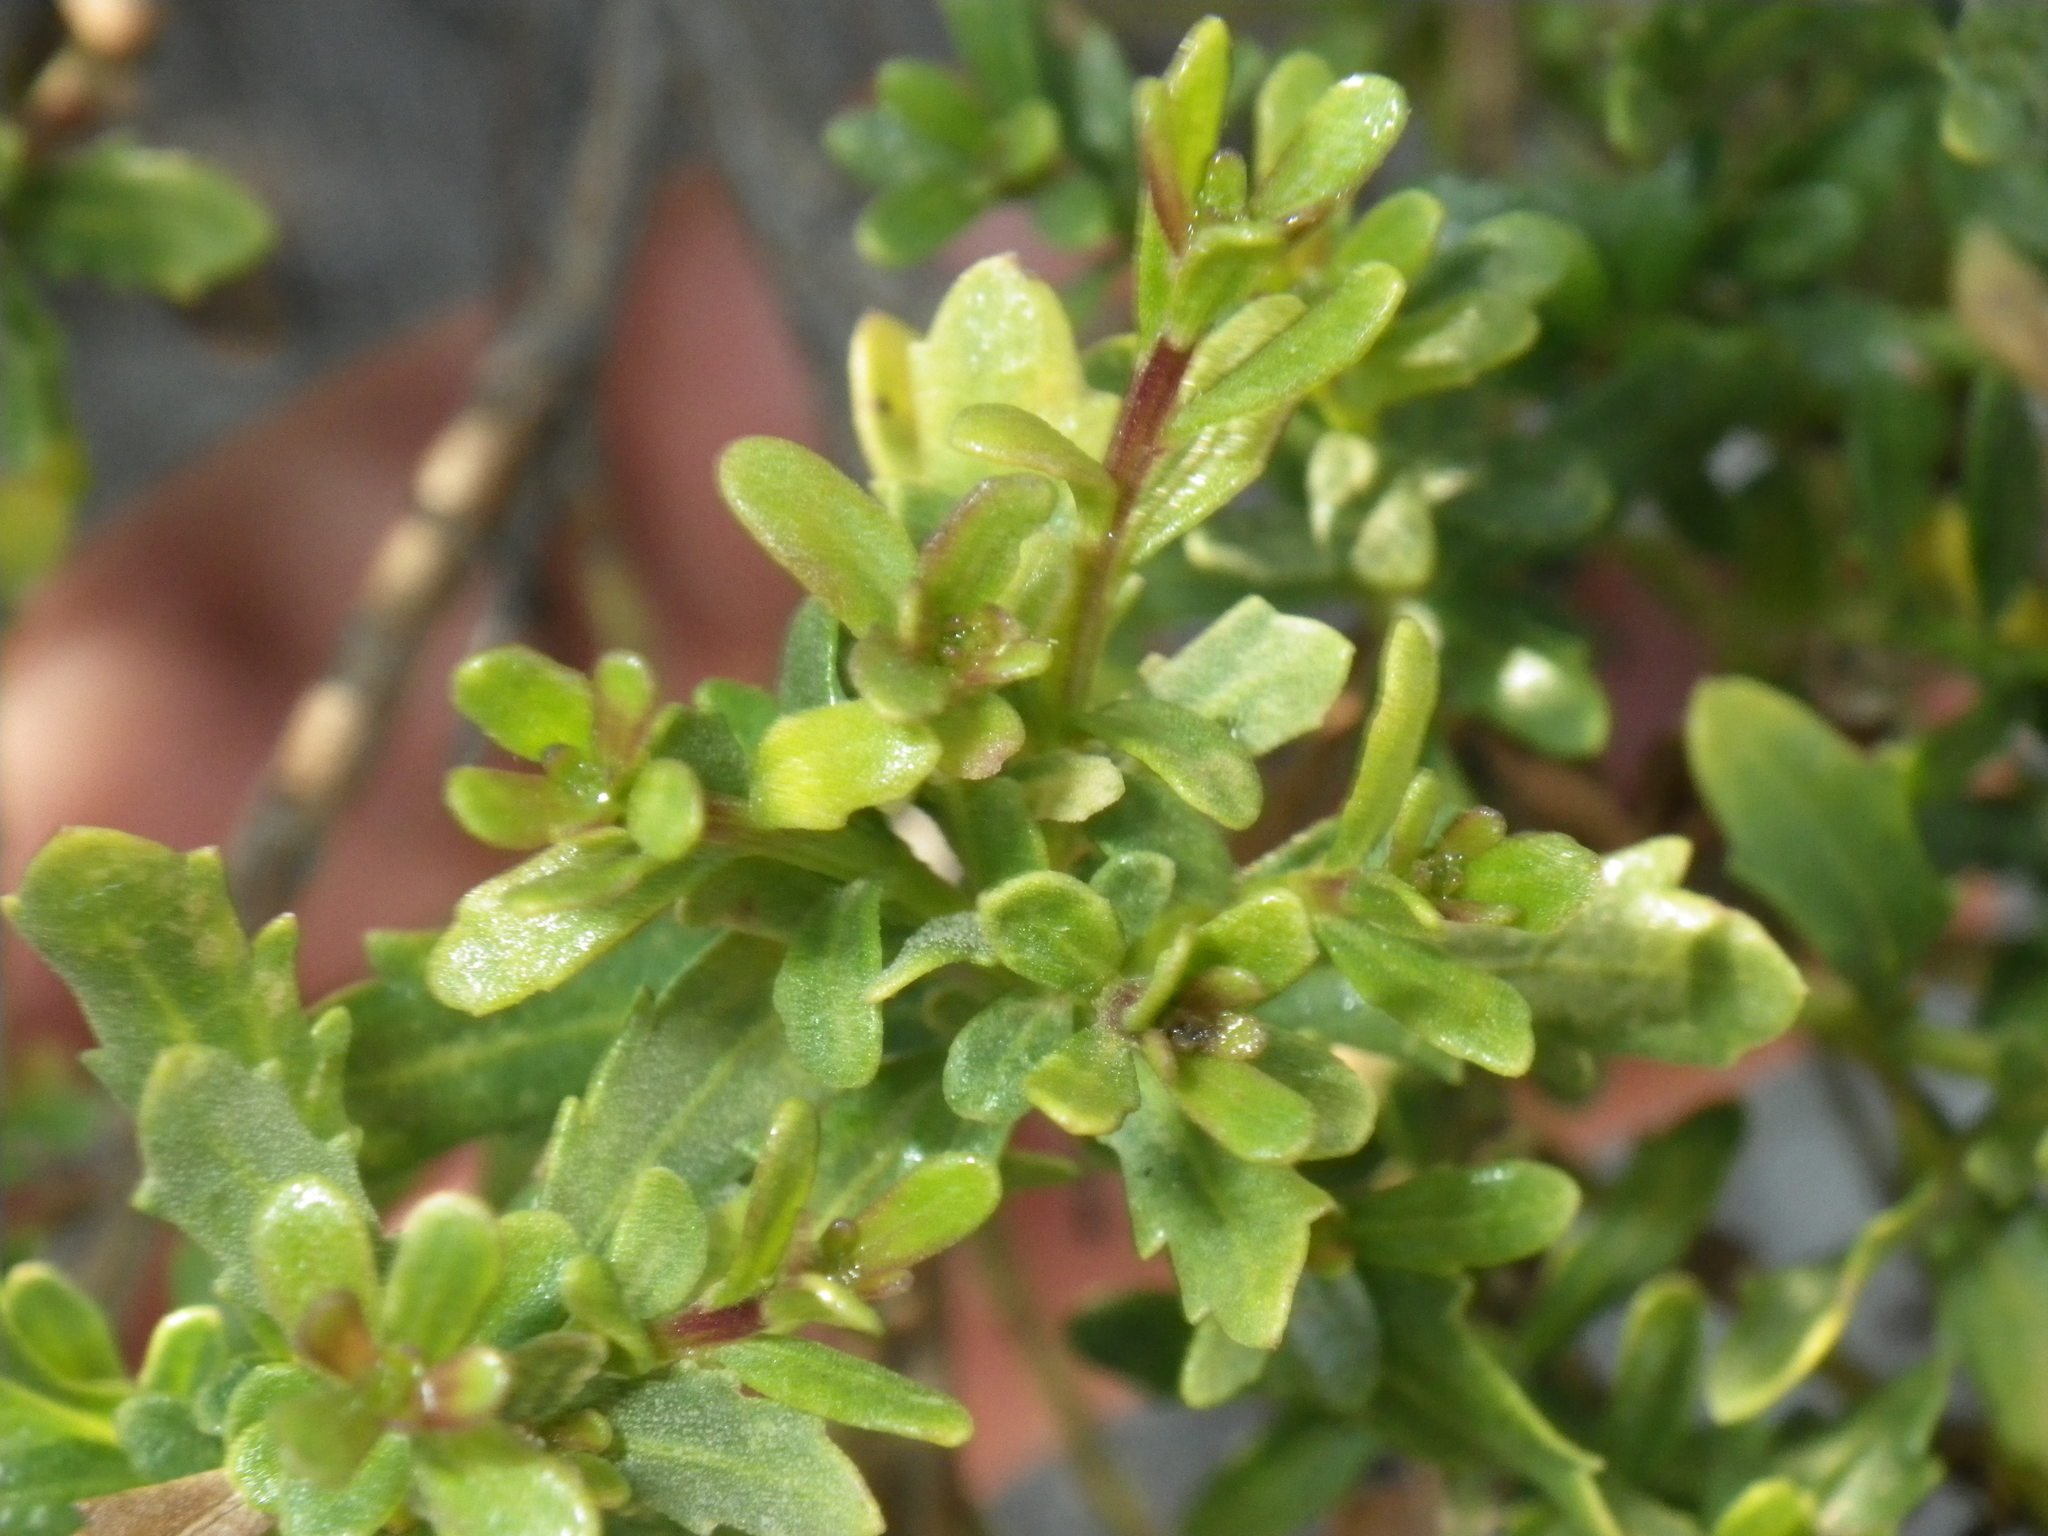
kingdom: Plantae
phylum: Tracheophyta
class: Magnoliopsida
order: Asterales
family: Asteraceae
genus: Baccharis
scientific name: Baccharis pilularis
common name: Coyotebrush
